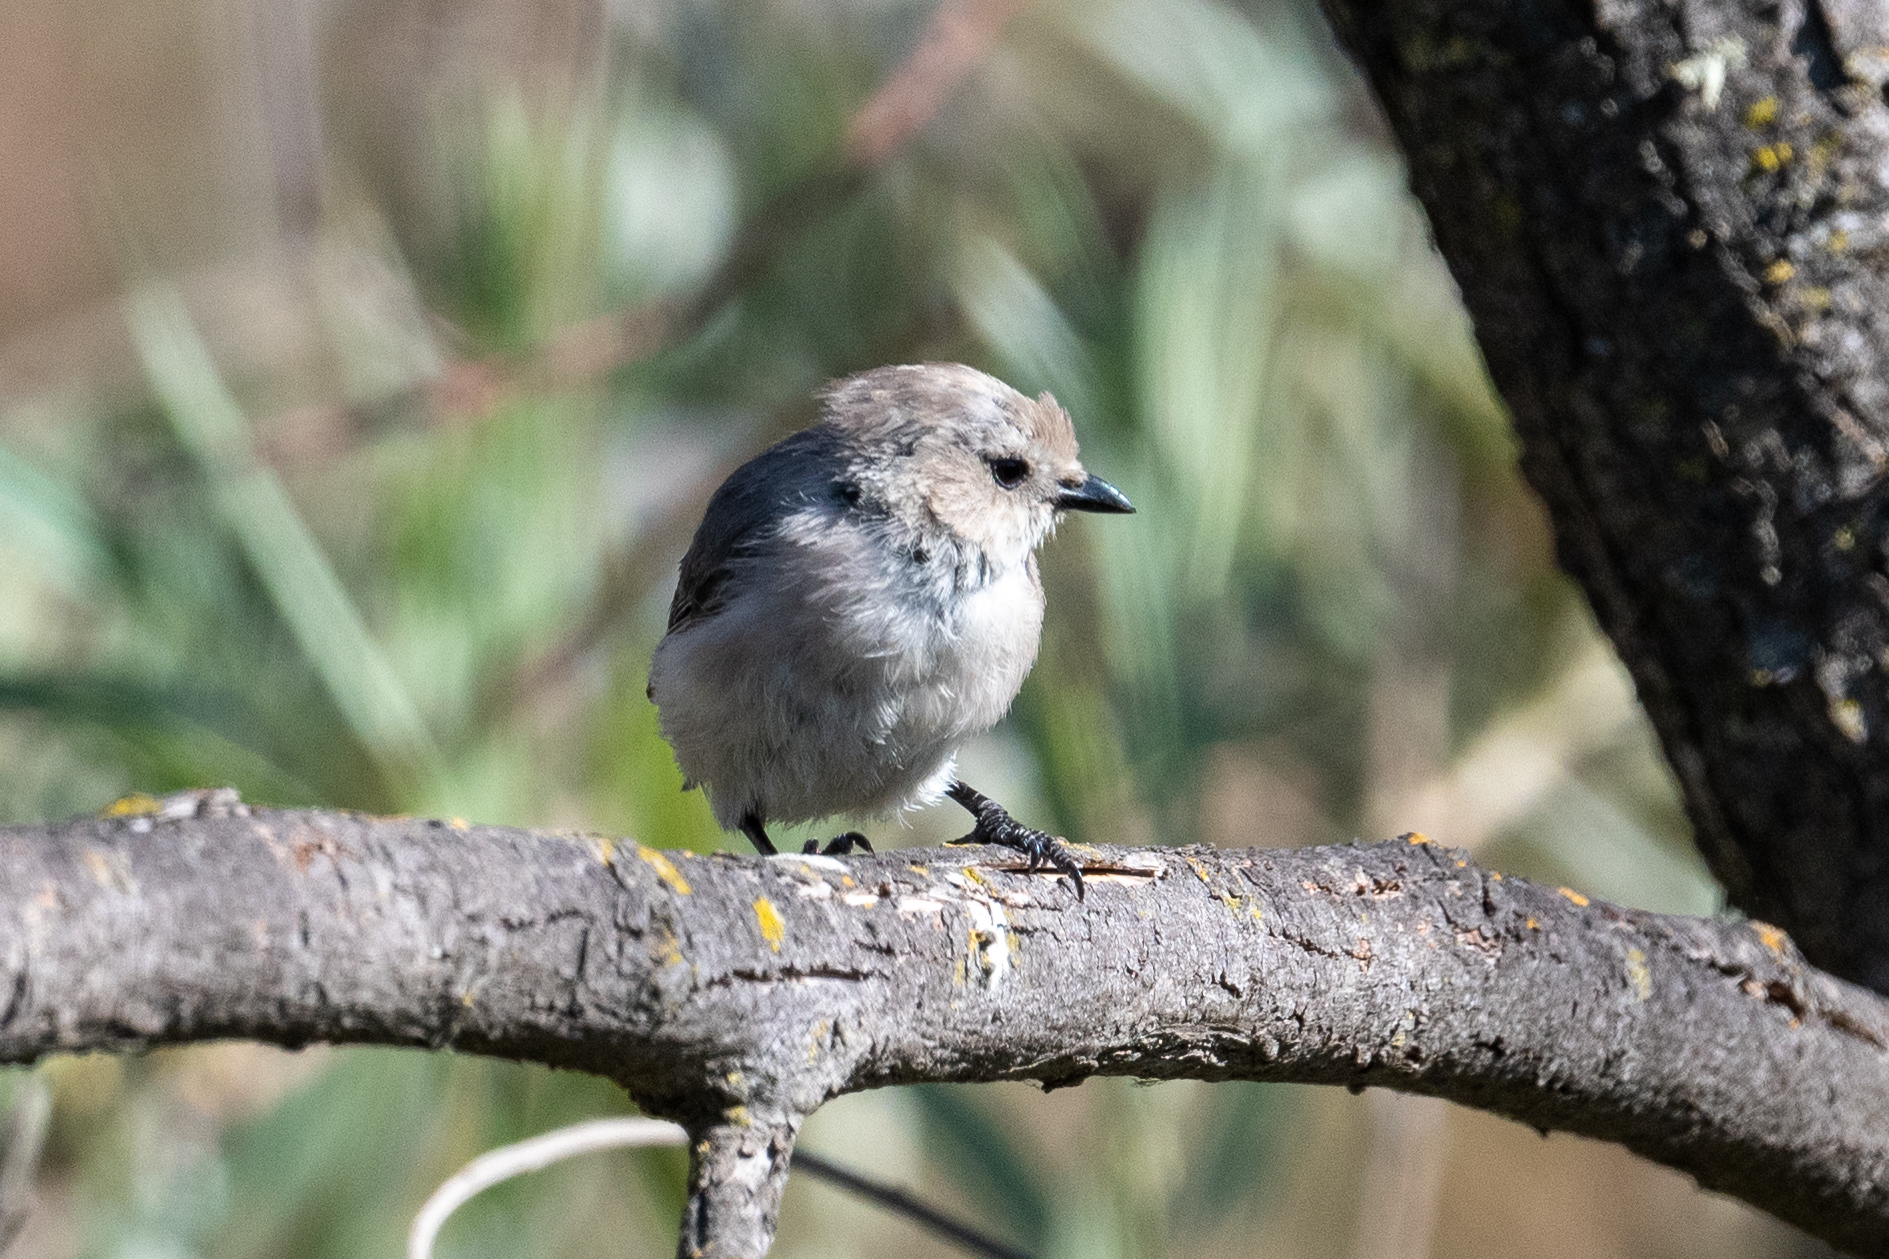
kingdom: Animalia
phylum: Chordata
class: Aves
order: Passeriformes
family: Aegithalidae
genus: Psaltriparus
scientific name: Psaltriparus minimus
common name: American bushtit
